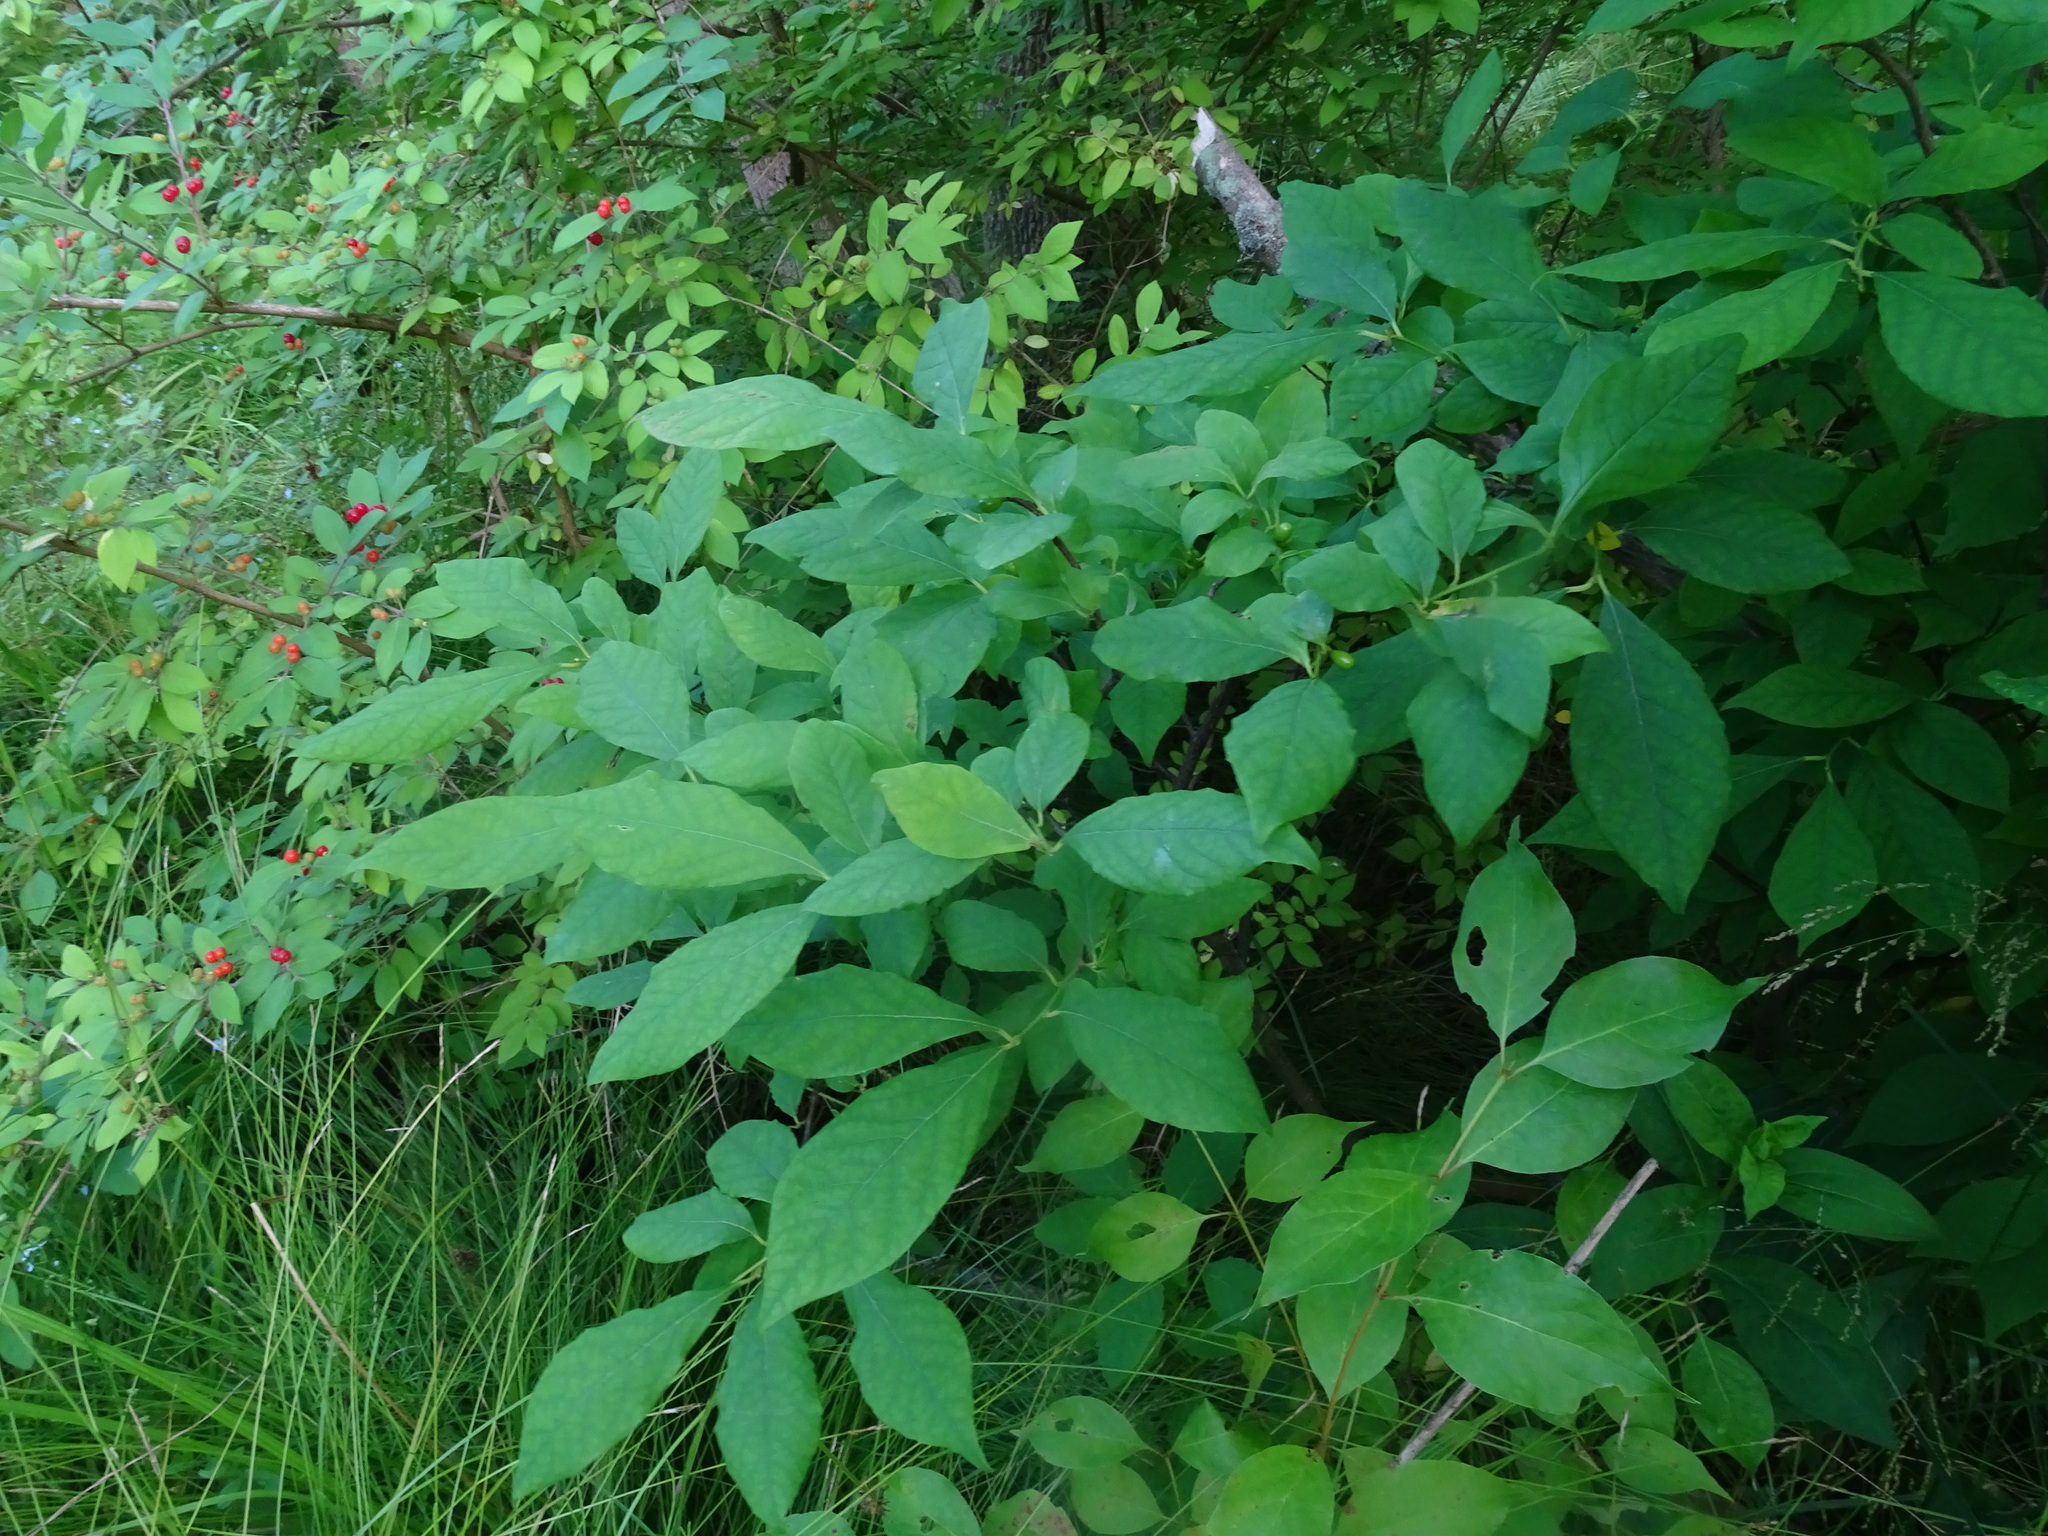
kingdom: Plantae
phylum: Tracheophyta
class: Magnoliopsida
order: Laurales
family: Lauraceae
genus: Lindera
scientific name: Lindera benzoin
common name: Spicebush
